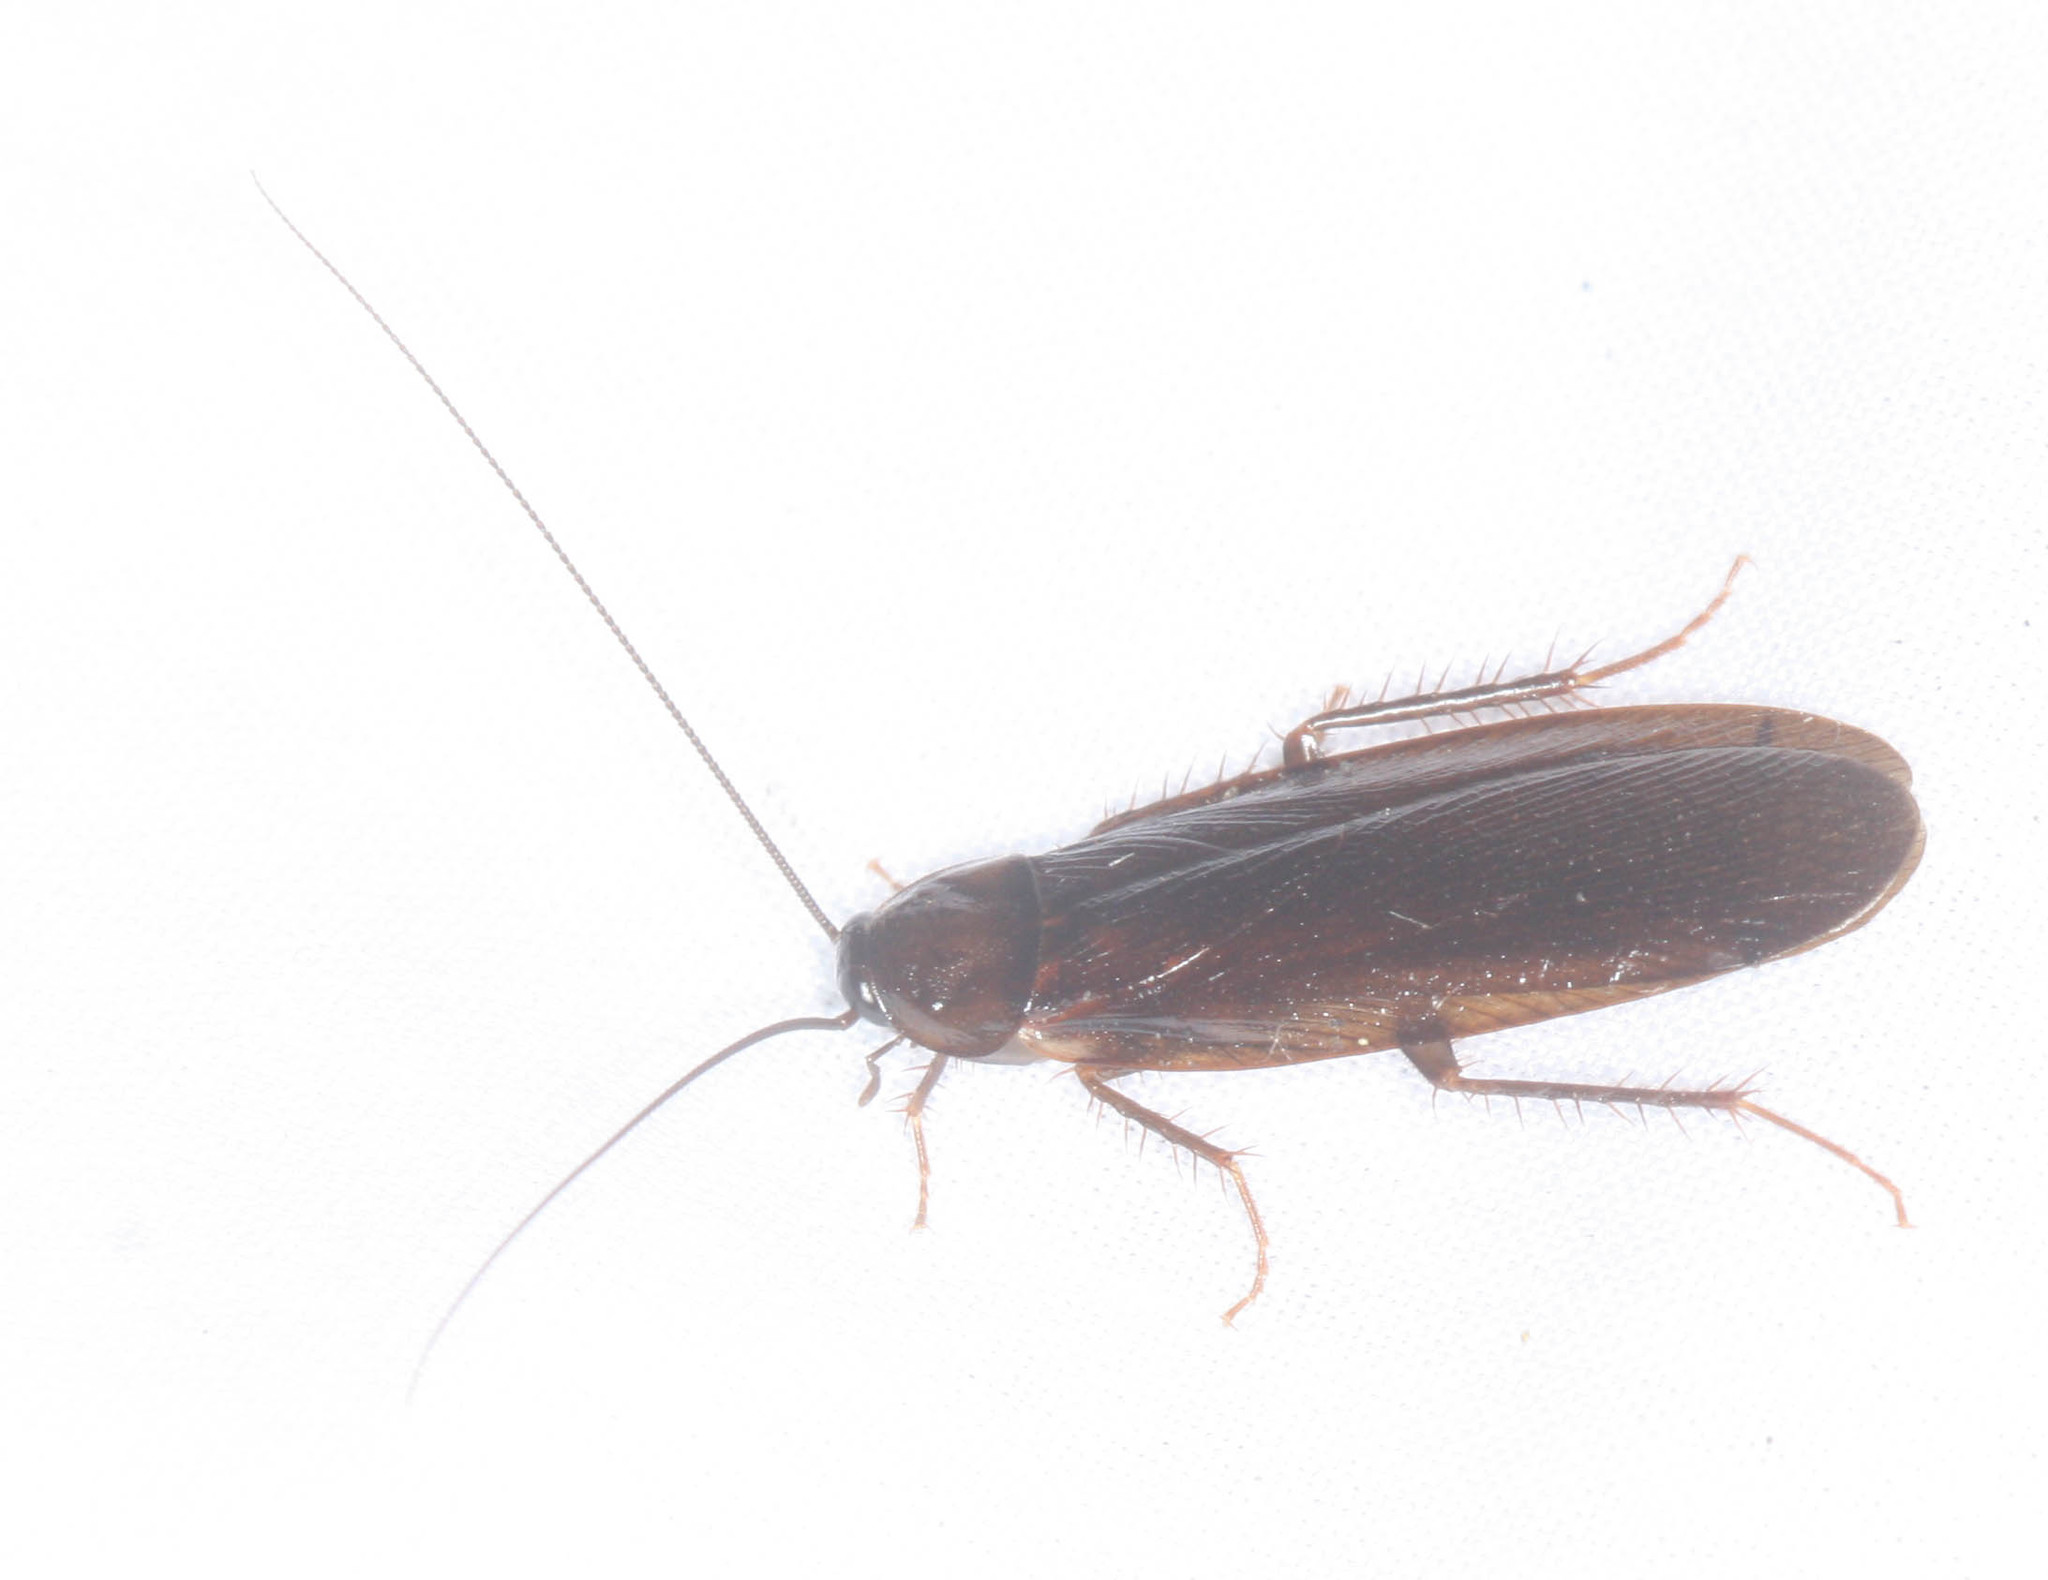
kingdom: Animalia
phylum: Arthropoda
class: Insecta
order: Blattodea
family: Ectobiidae
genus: Parcoblatta
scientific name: Parcoblatta americana
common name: Western wood cockroach
